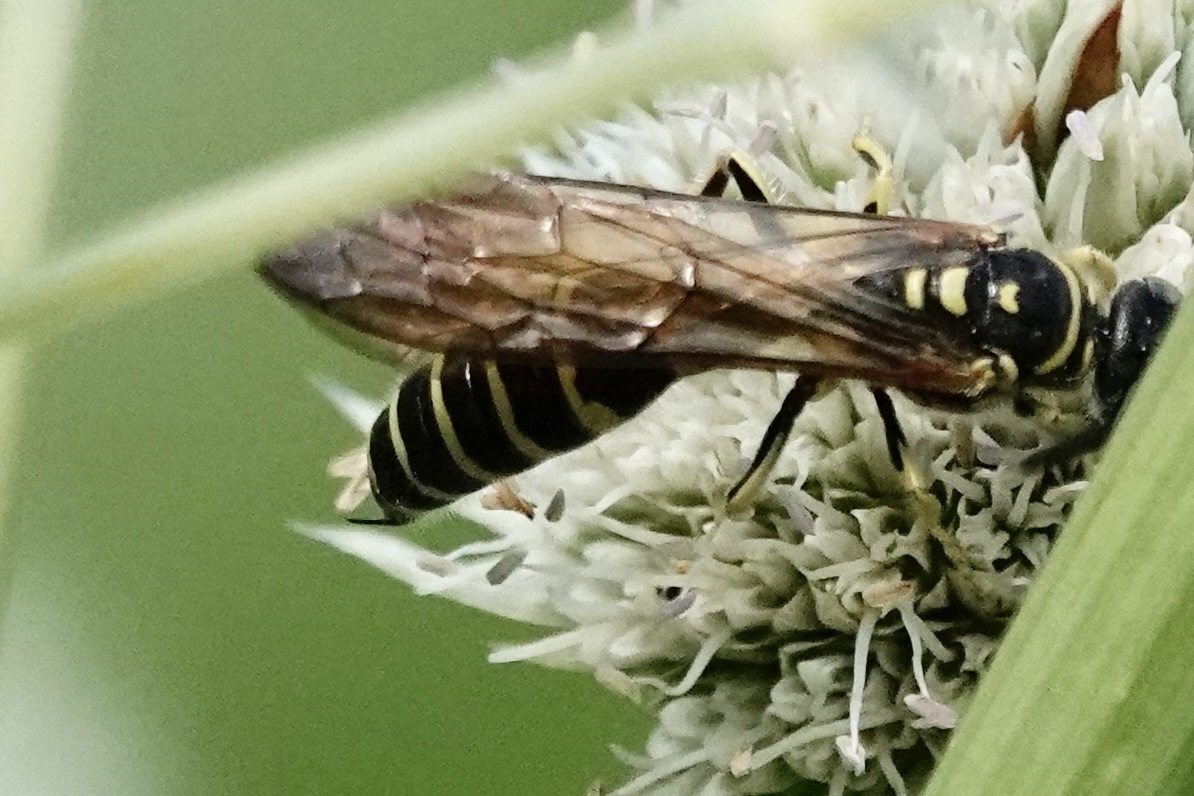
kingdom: Animalia
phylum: Arthropoda
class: Insecta
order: Hymenoptera
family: Tiphiidae
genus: Myzinum
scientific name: Myzinum quinquecinctum
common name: Five-banded thynnid wasp
